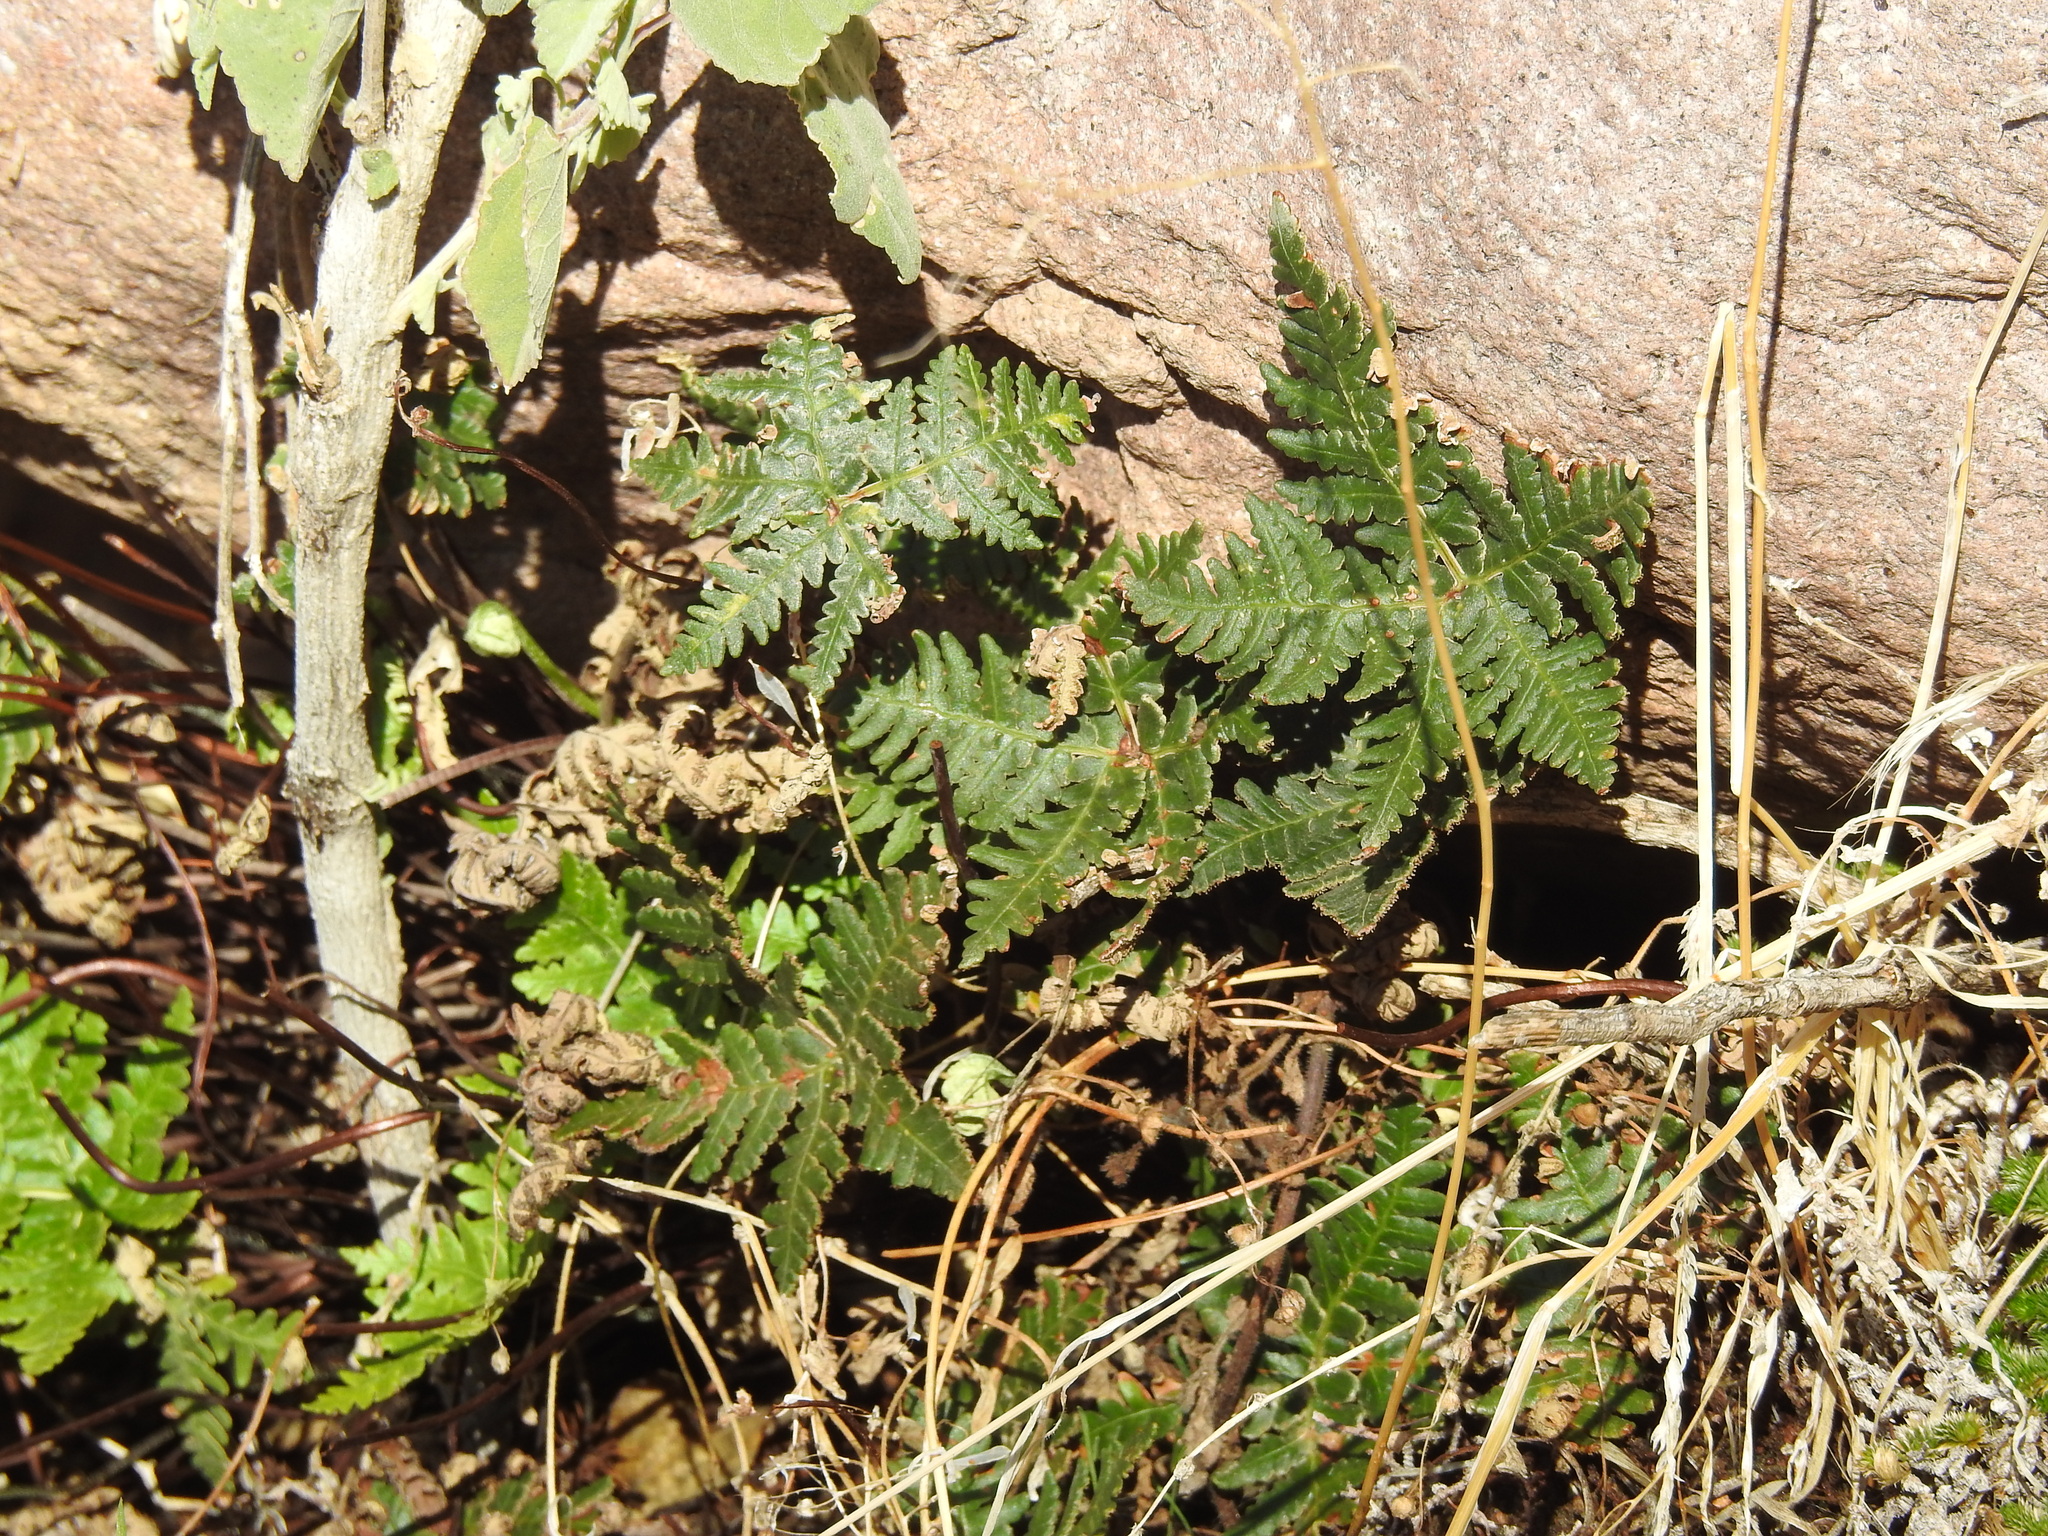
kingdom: Plantae
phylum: Tracheophyta
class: Polypodiopsida
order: Polypodiales
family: Pteridaceae
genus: Notholaena
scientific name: Notholaena standleyi
